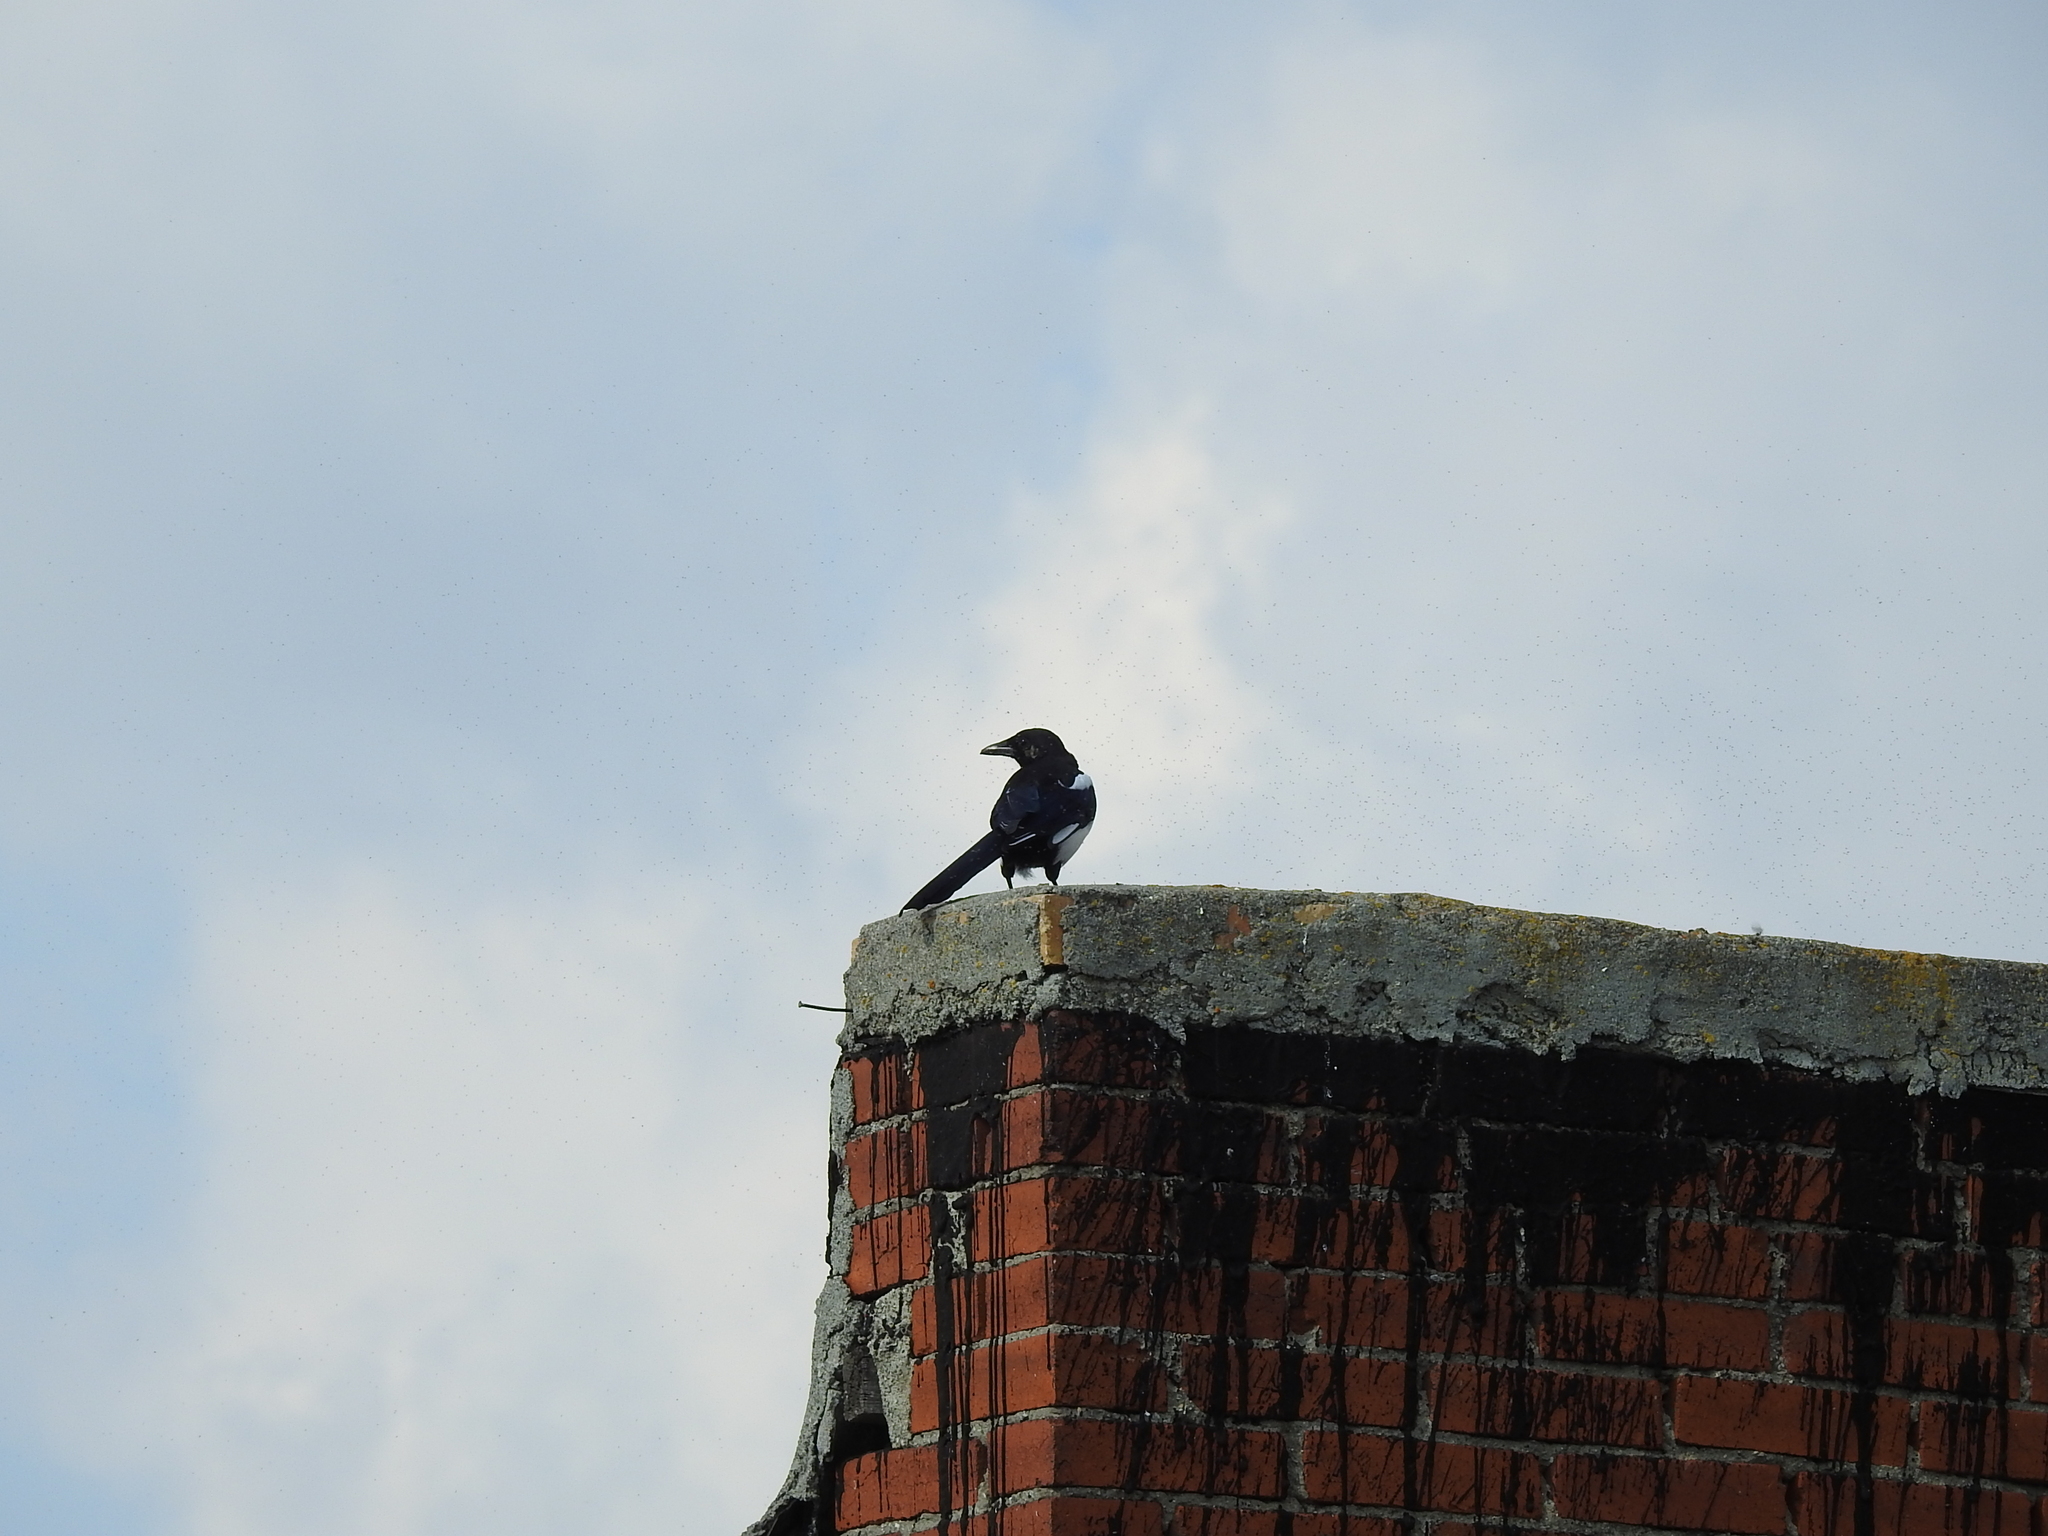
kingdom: Animalia
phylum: Chordata
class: Aves
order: Passeriformes
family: Corvidae
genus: Pica
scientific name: Pica pica
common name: Eurasian magpie
